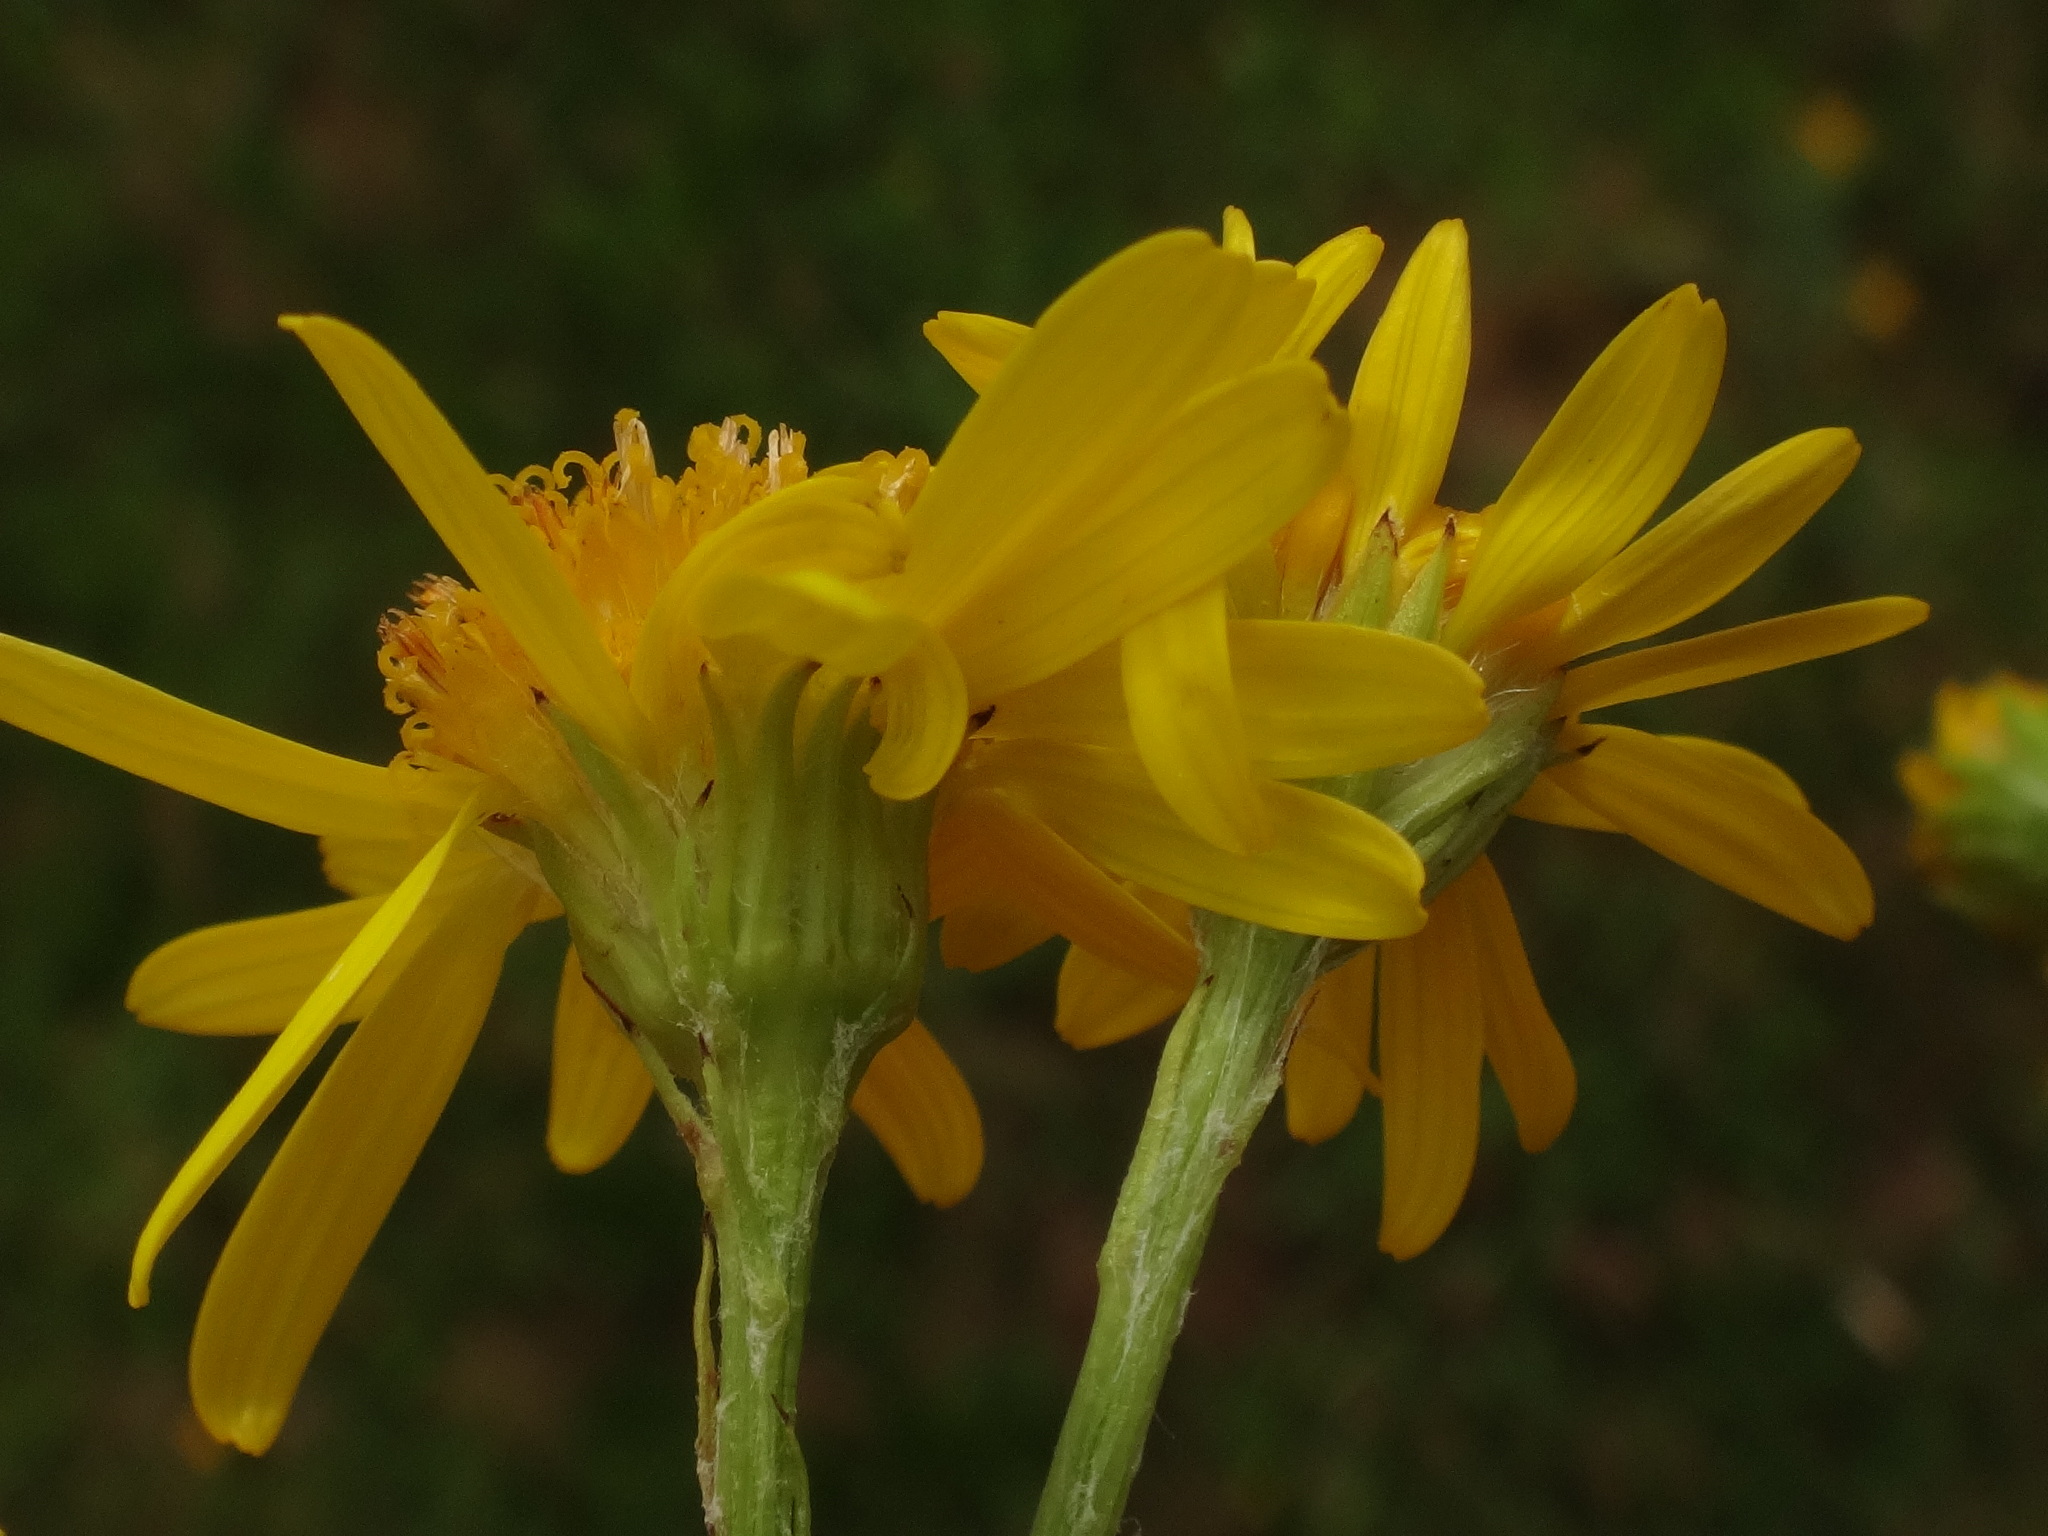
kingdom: Plantae
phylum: Tracheophyta
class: Magnoliopsida
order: Asterales
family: Asteraceae
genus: Jacobaea
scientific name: Jacobaea vulgaris
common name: Stinking willie
